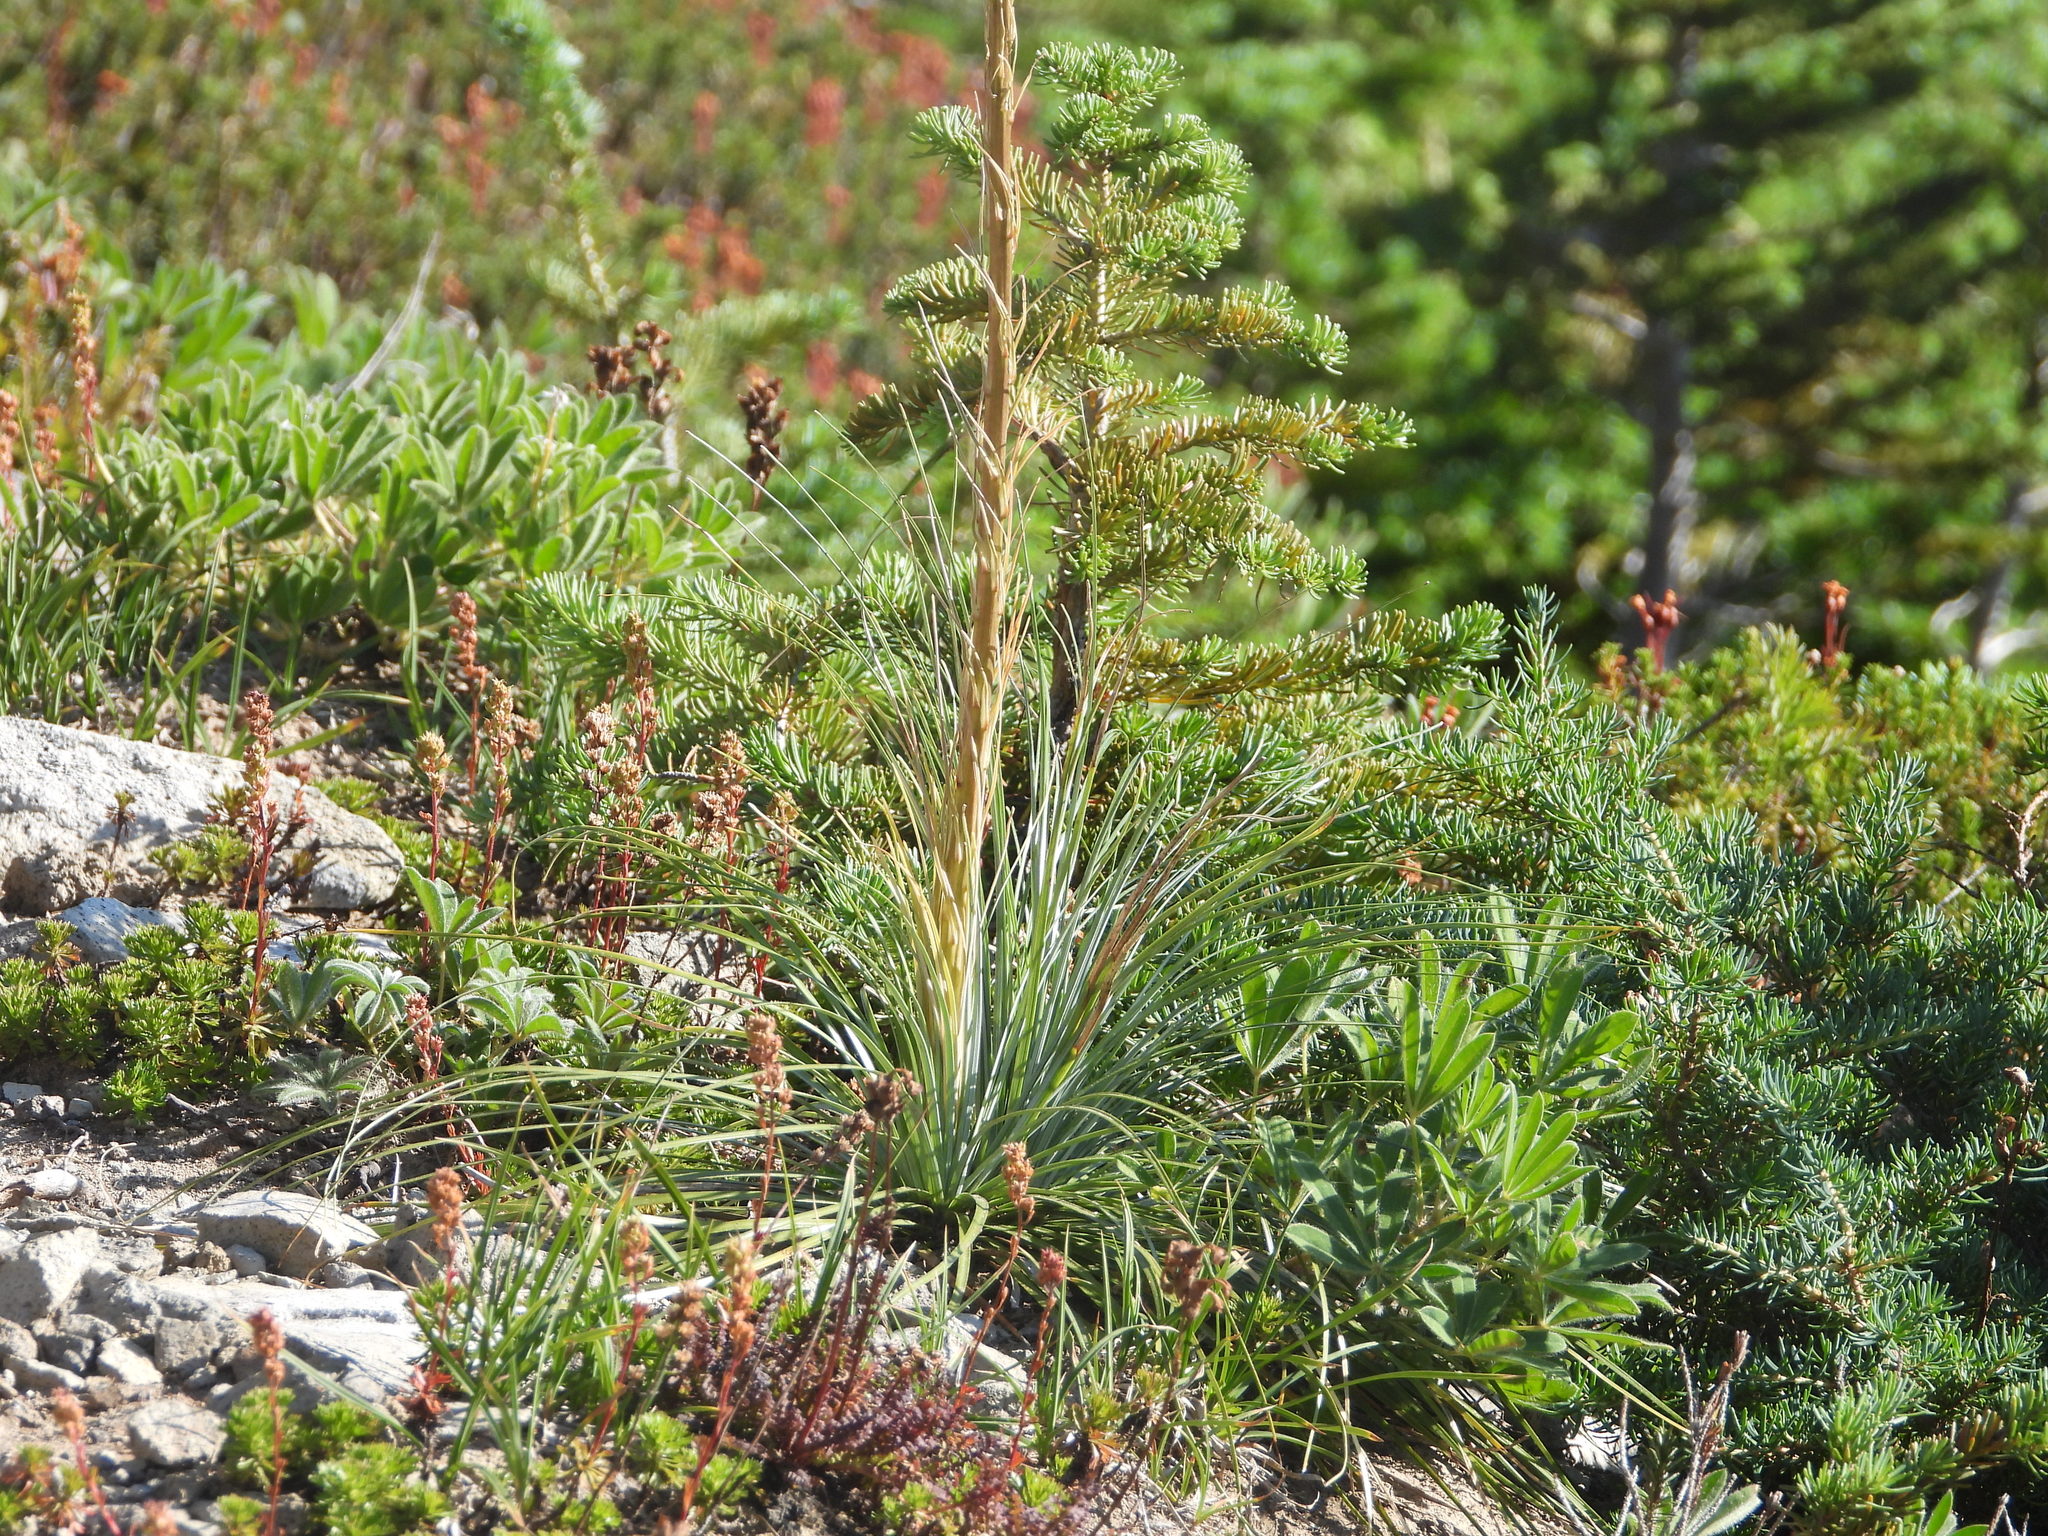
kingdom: Plantae
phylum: Tracheophyta
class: Liliopsida
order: Liliales
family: Melanthiaceae
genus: Xerophyllum
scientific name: Xerophyllum tenax
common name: Bear-grass
